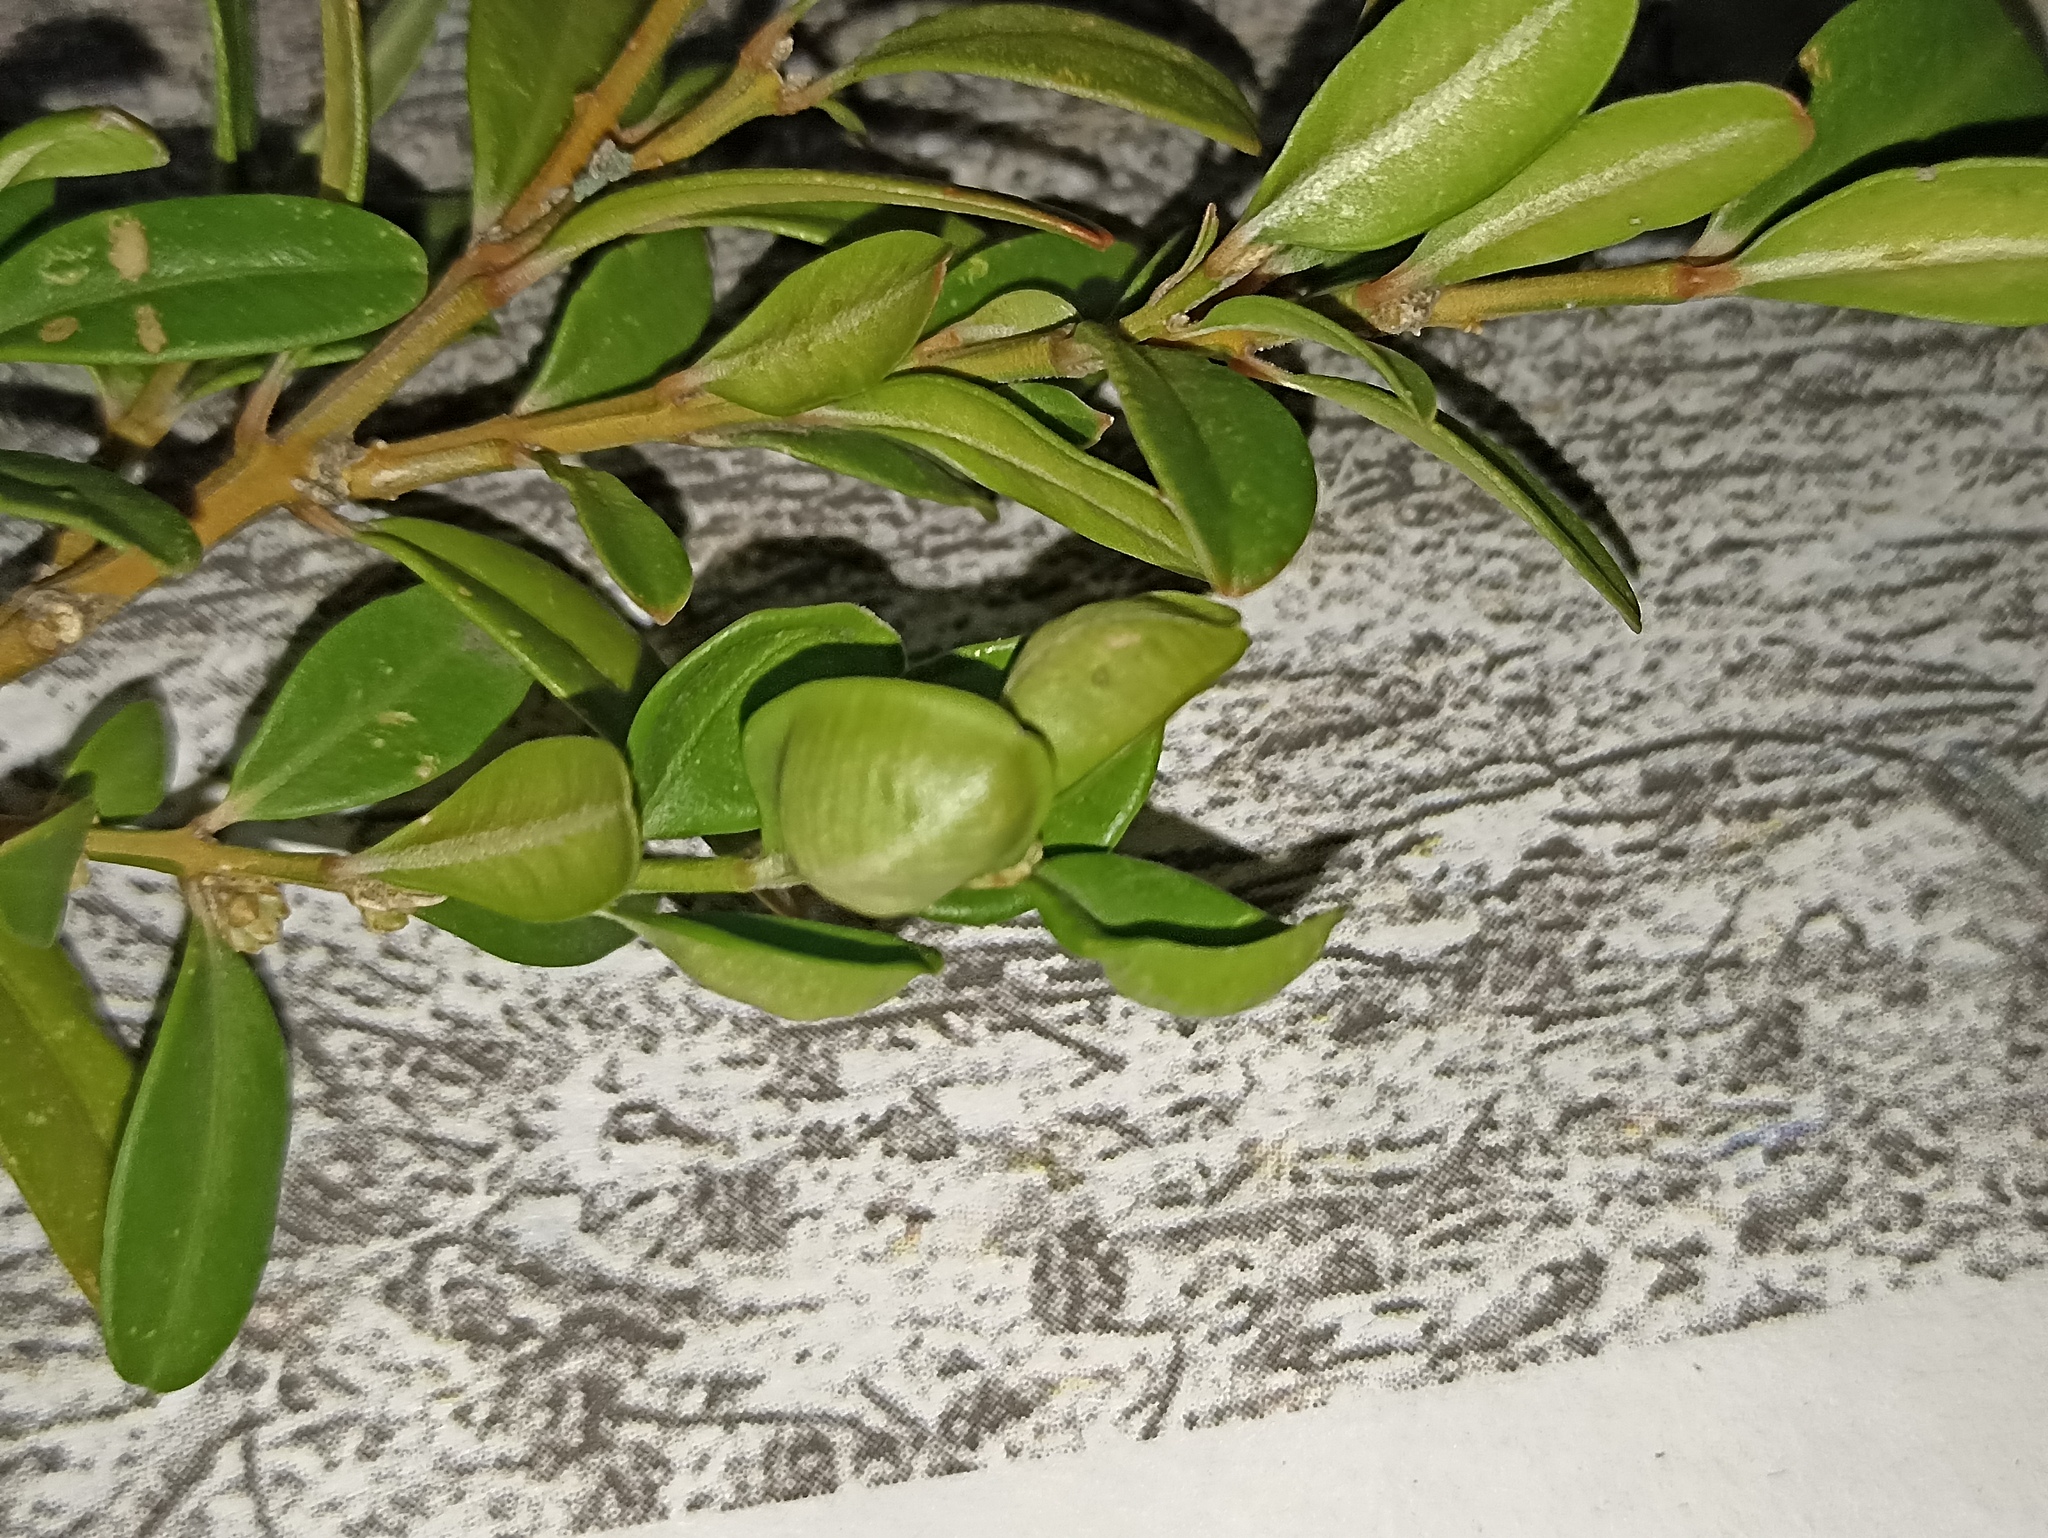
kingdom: Animalia
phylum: Arthropoda
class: Insecta
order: Hemiptera
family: Psyllidae
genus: Psylla
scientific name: Psylla buxi
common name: Boxwood psyllid
